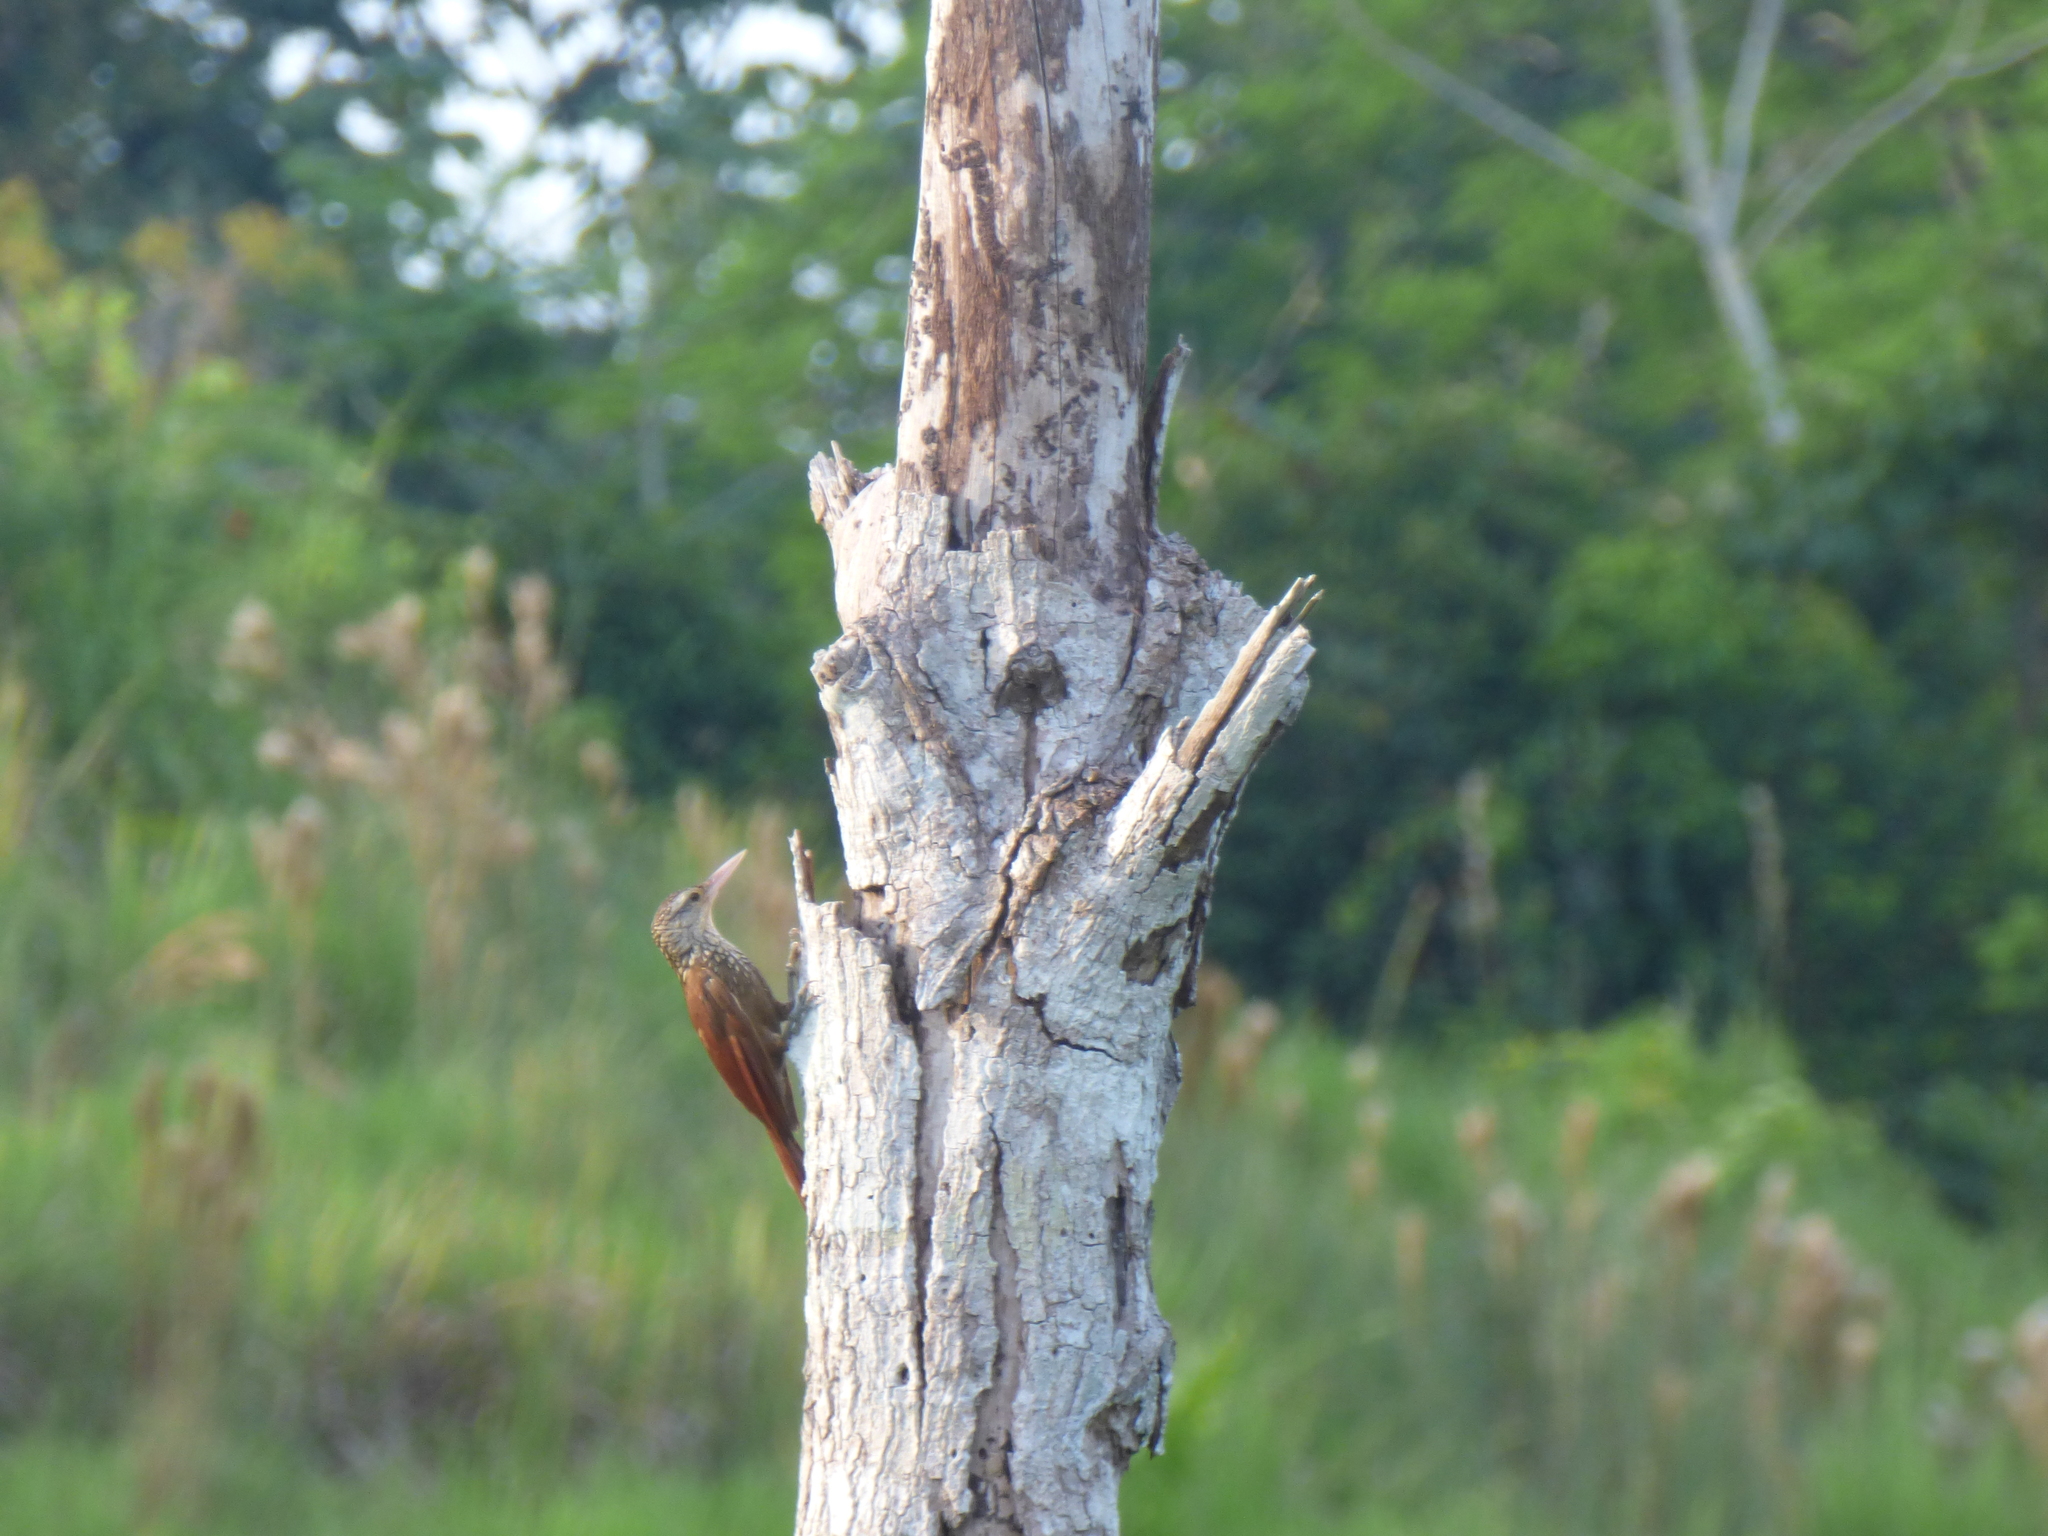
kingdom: Animalia
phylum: Chordata
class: Aves
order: Passeriformes
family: Furnariidae
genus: Xiphorhynchus
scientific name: Xiphorhynchus picus
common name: Straight-billed woodcreeper
